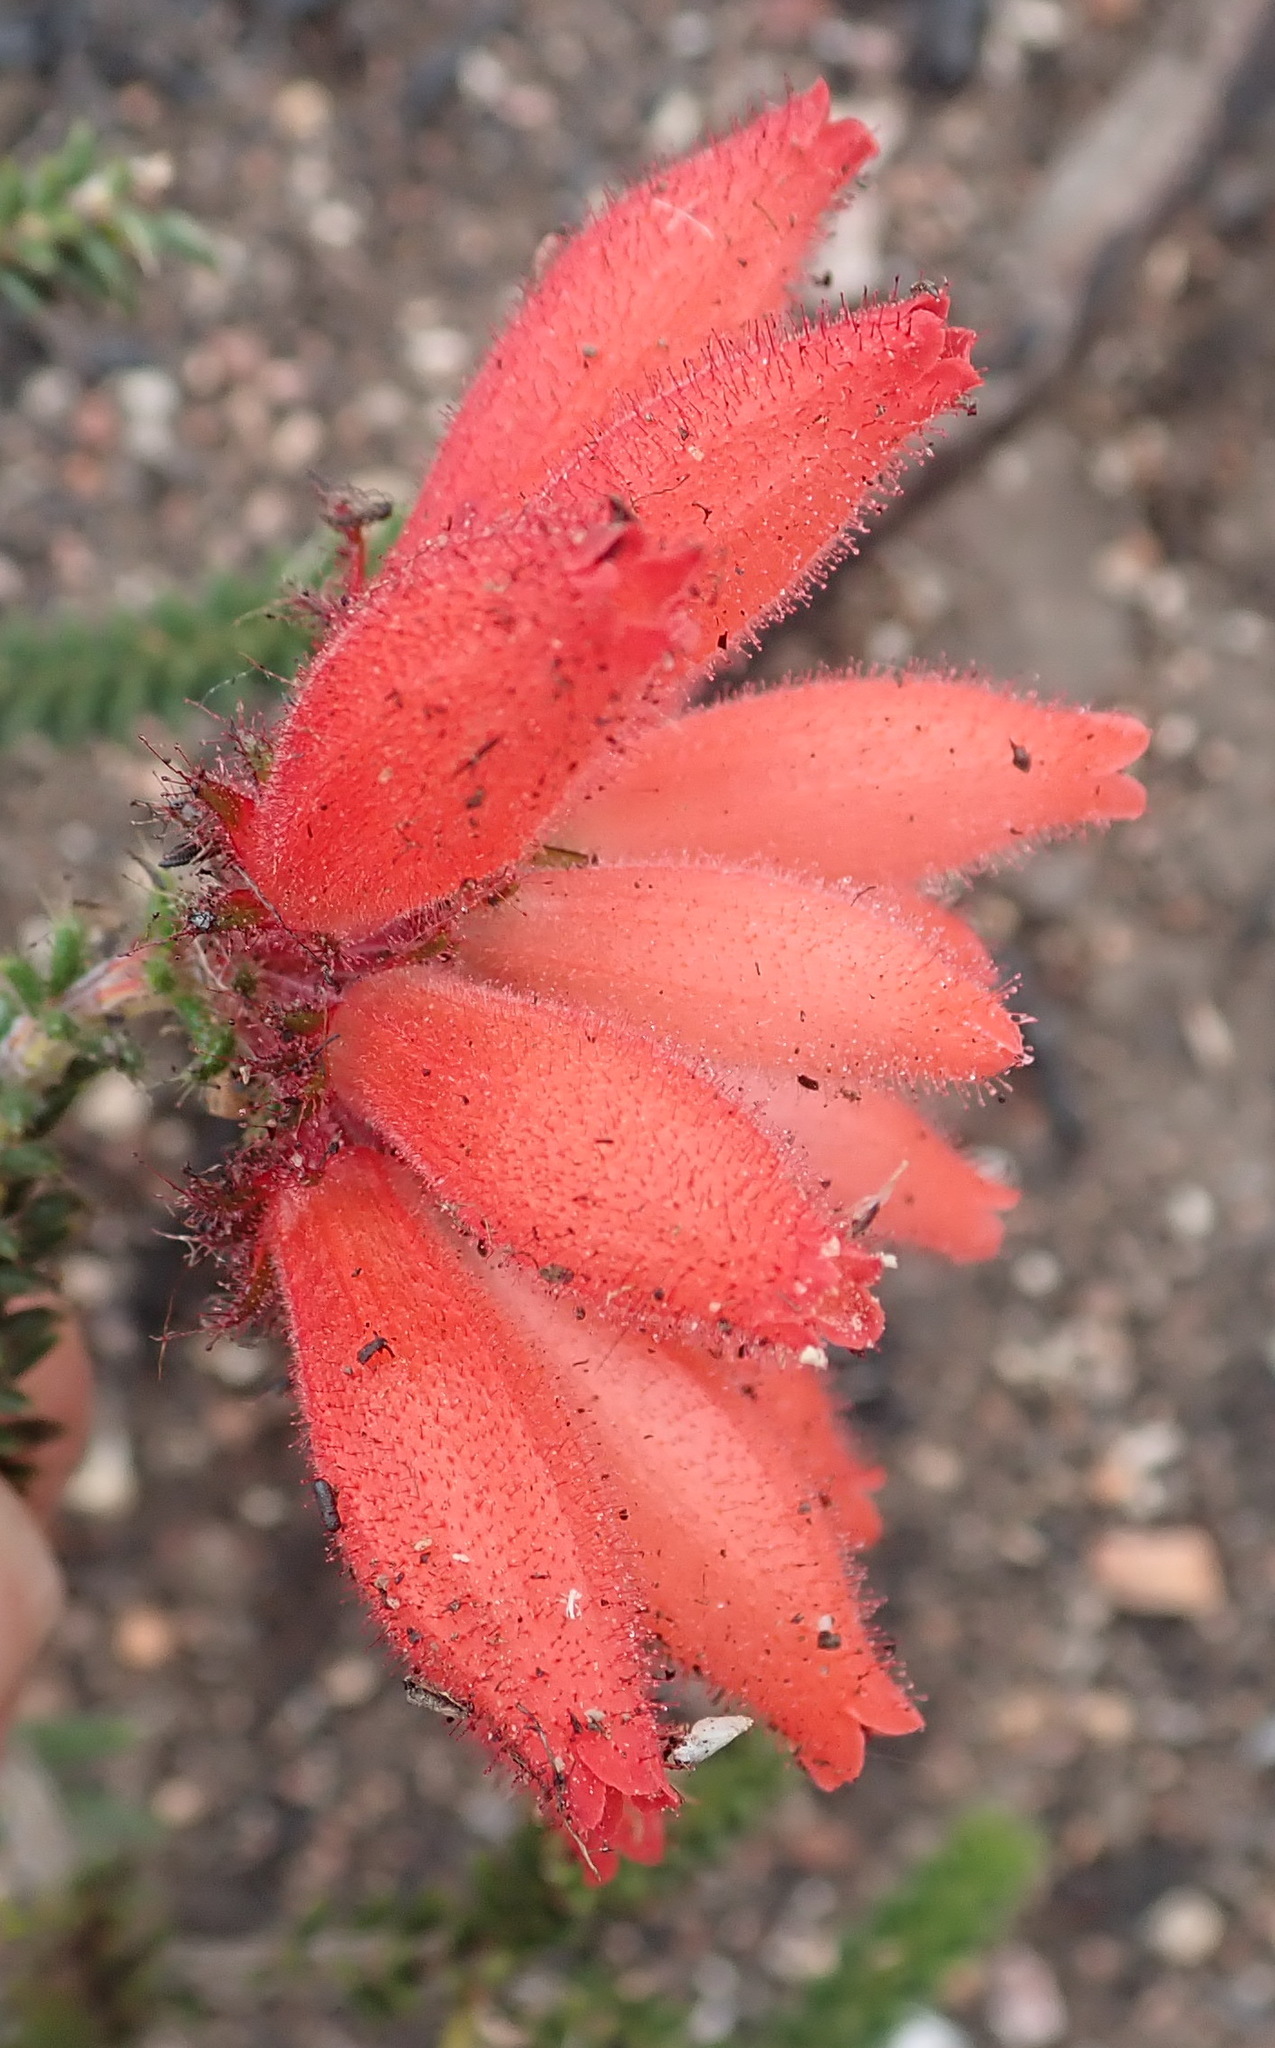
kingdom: Plantae
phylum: Tracheophyta
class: Magnoliopsida
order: Ericales
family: Ericaceae
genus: Erica
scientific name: Erica cerinthoides
